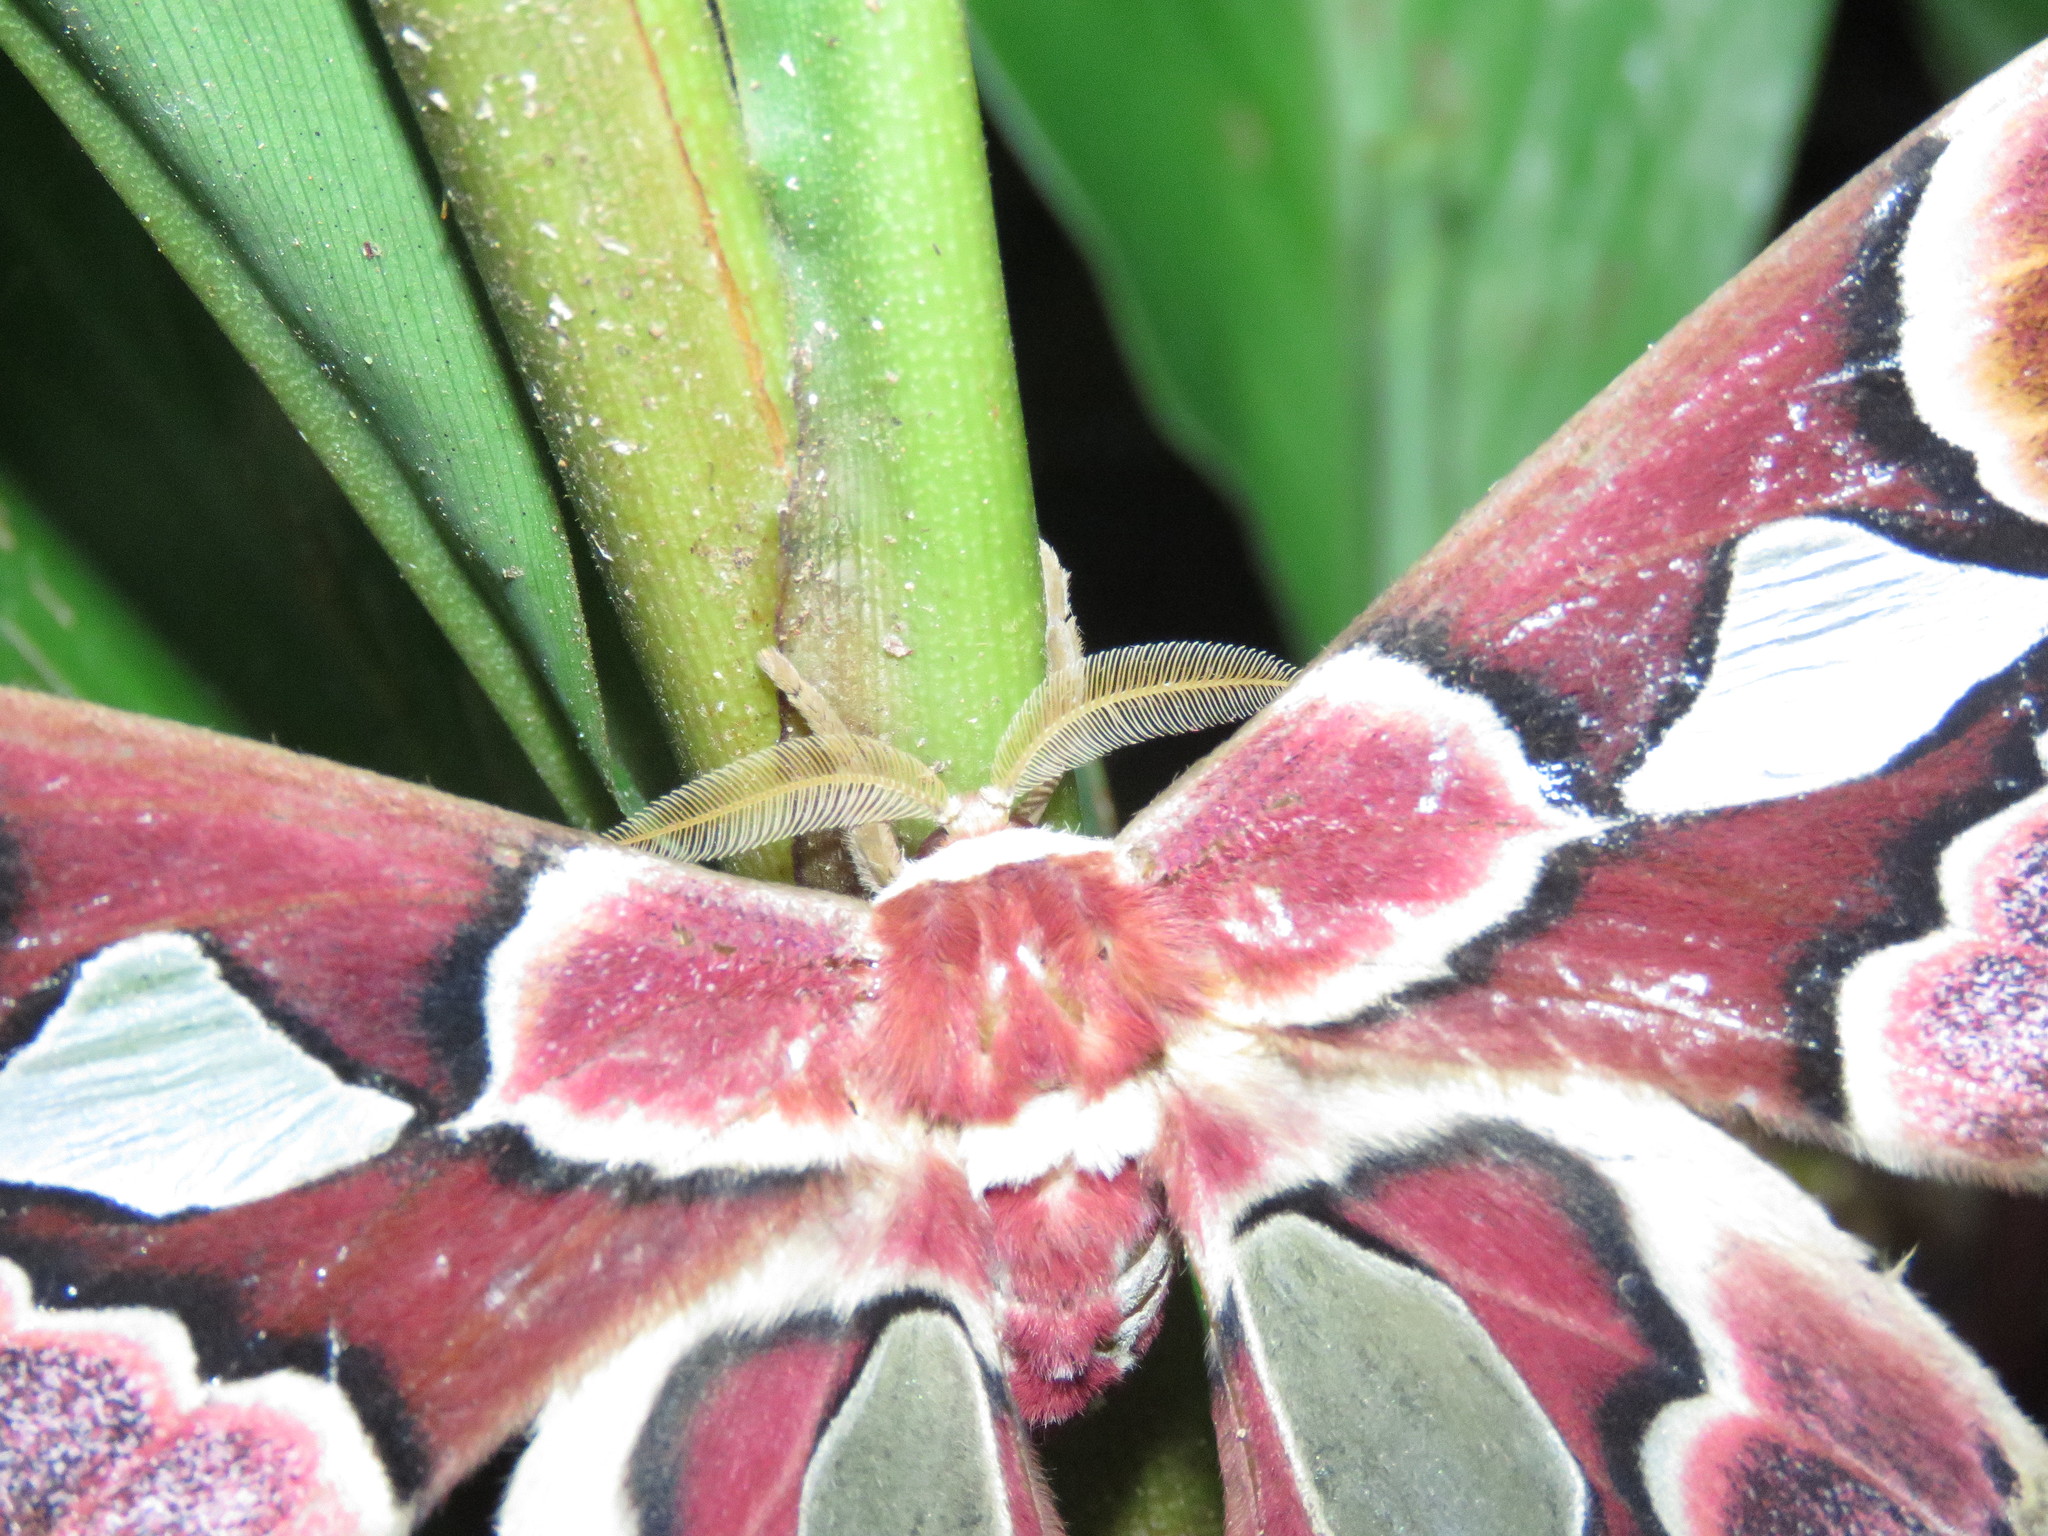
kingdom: Animalia
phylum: Arthropoda
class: Insecta
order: Lepidoptera
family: Saturniidae
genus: Rothschildia
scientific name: Rothschildia erycina
